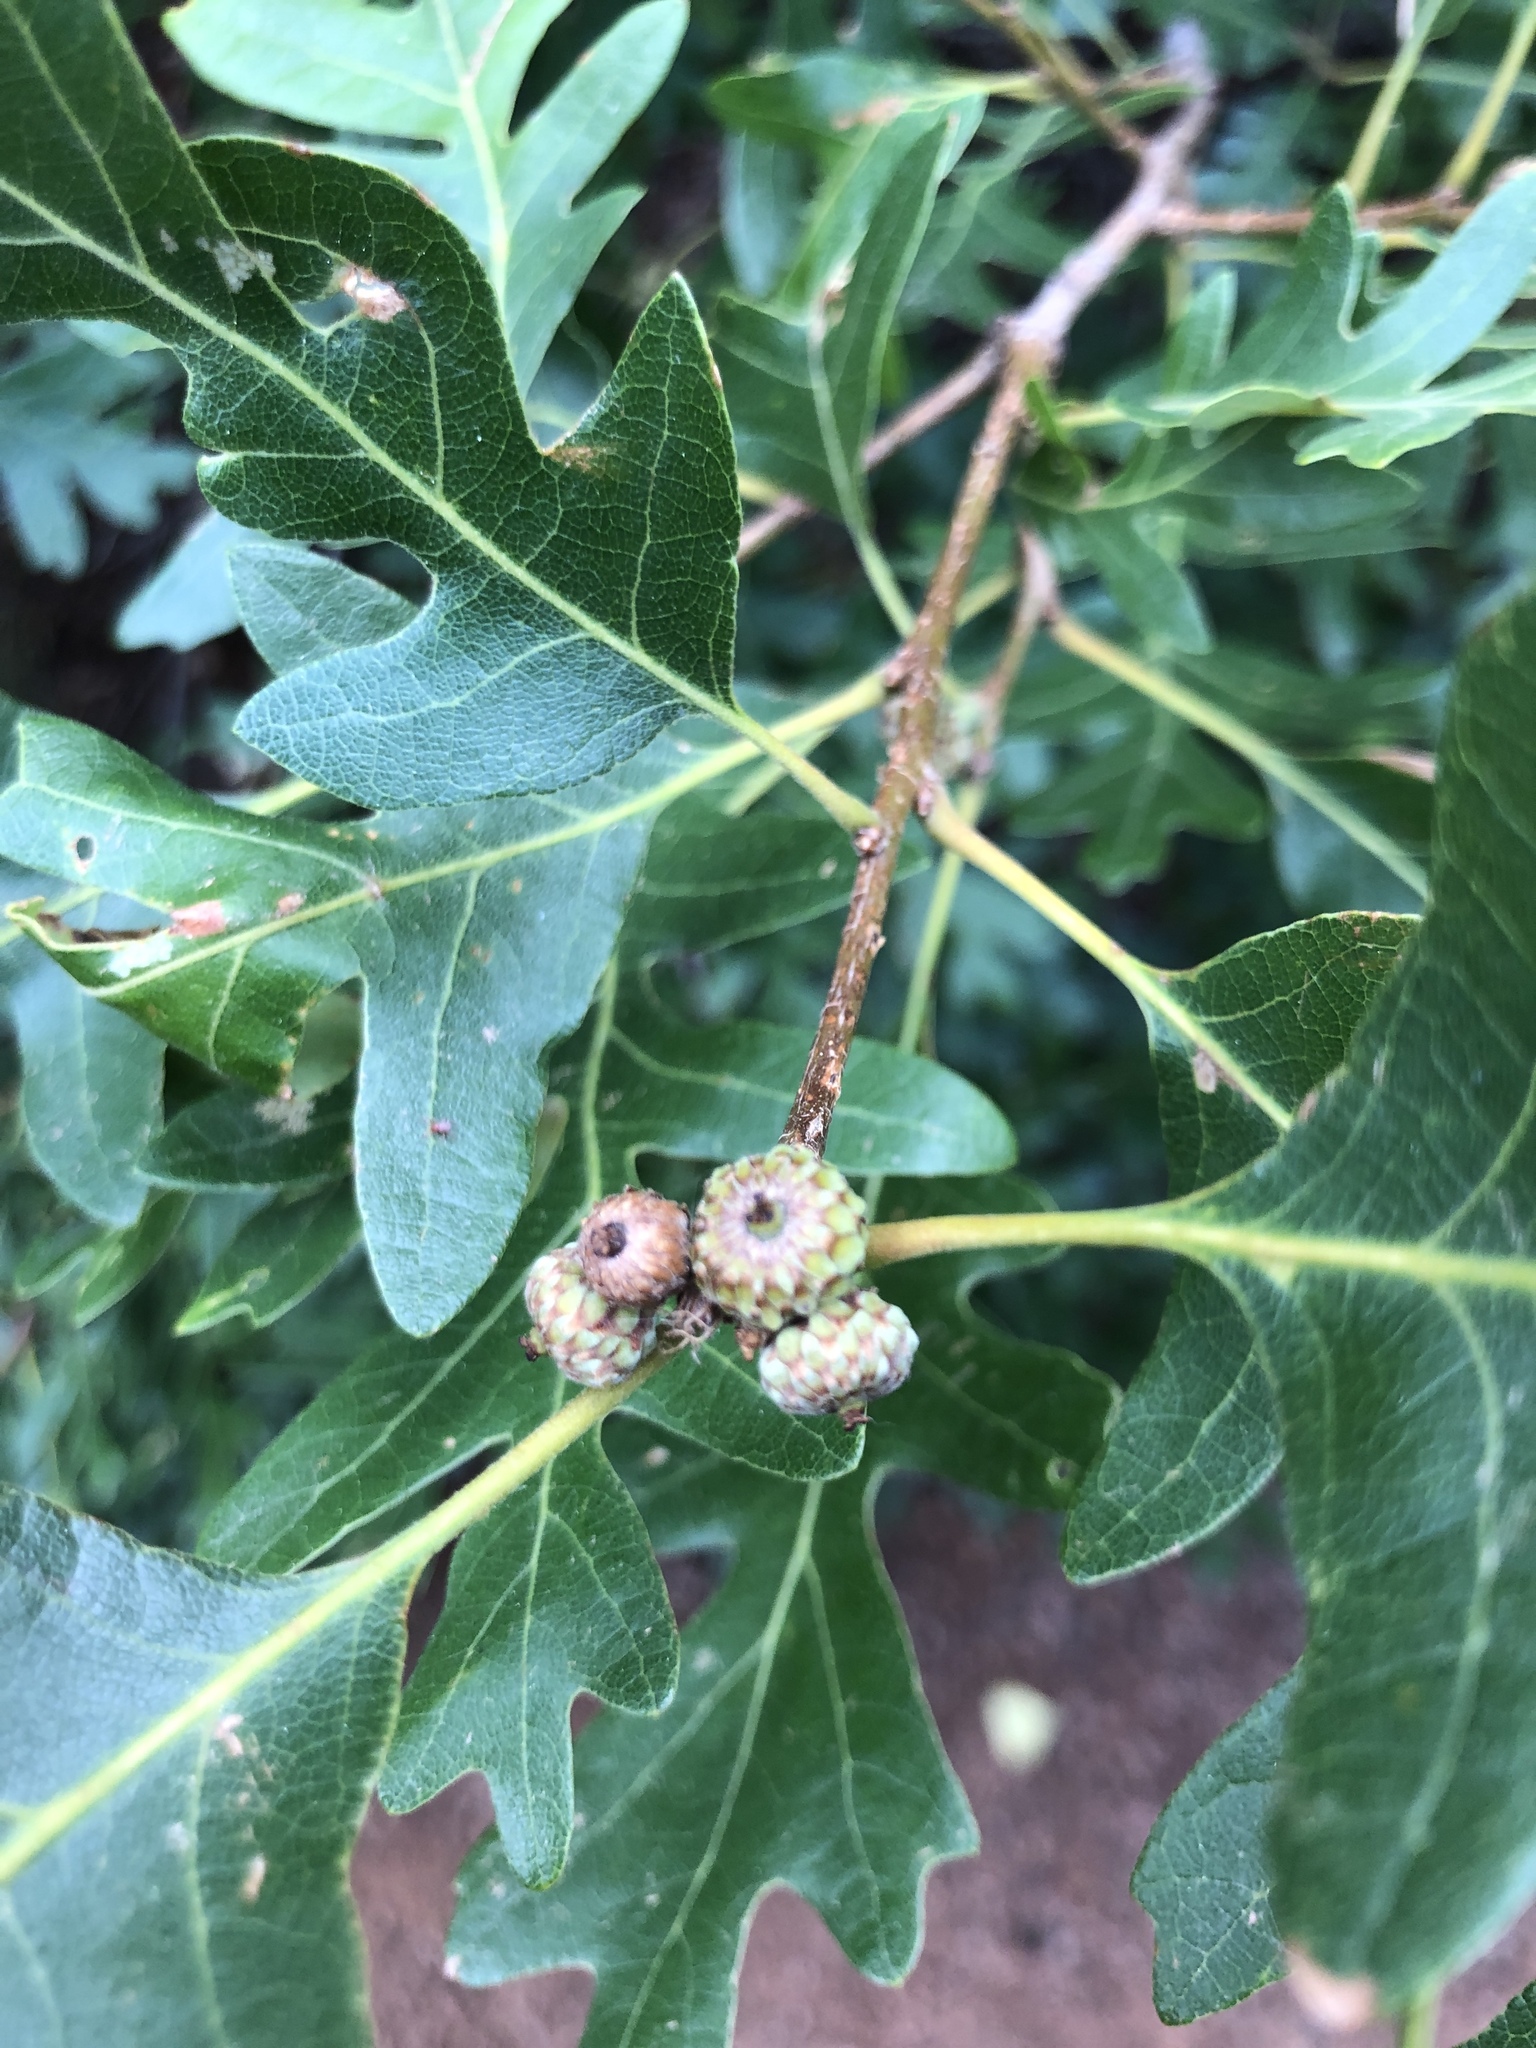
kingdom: Plantae
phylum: Tracheophyta
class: Magnoliopsida
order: Fagales
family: Fagaceae
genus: Quercus
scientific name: Quercus gambelii
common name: Gambel oak
